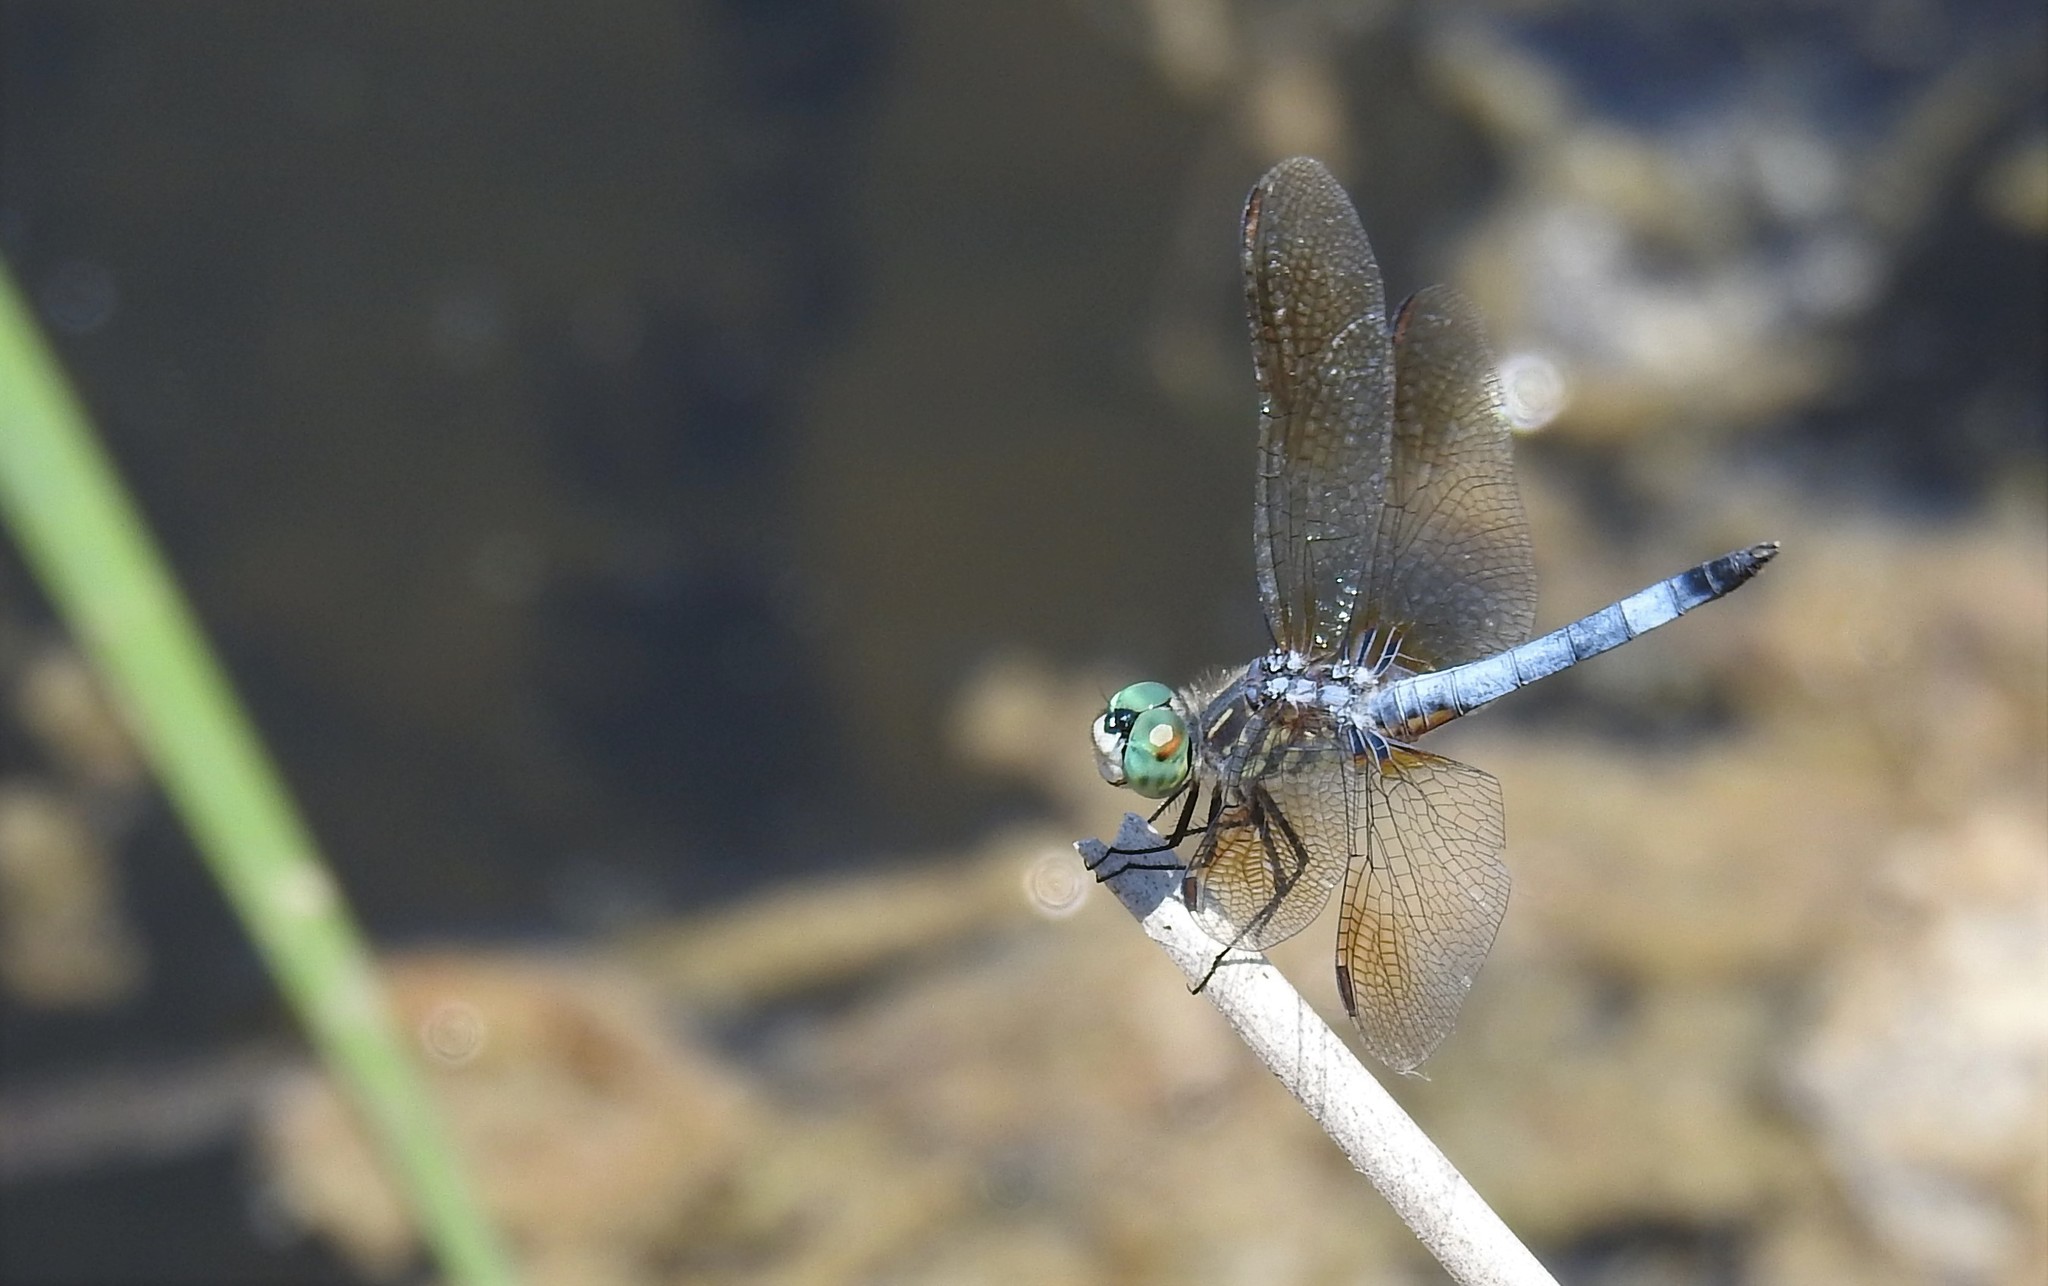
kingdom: Animalia
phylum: Arthropoda
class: Insecta
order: Odonata
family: Libellulidae
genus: Pachydiplax
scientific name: Pachydiplax longipennis
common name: Blue dasher
